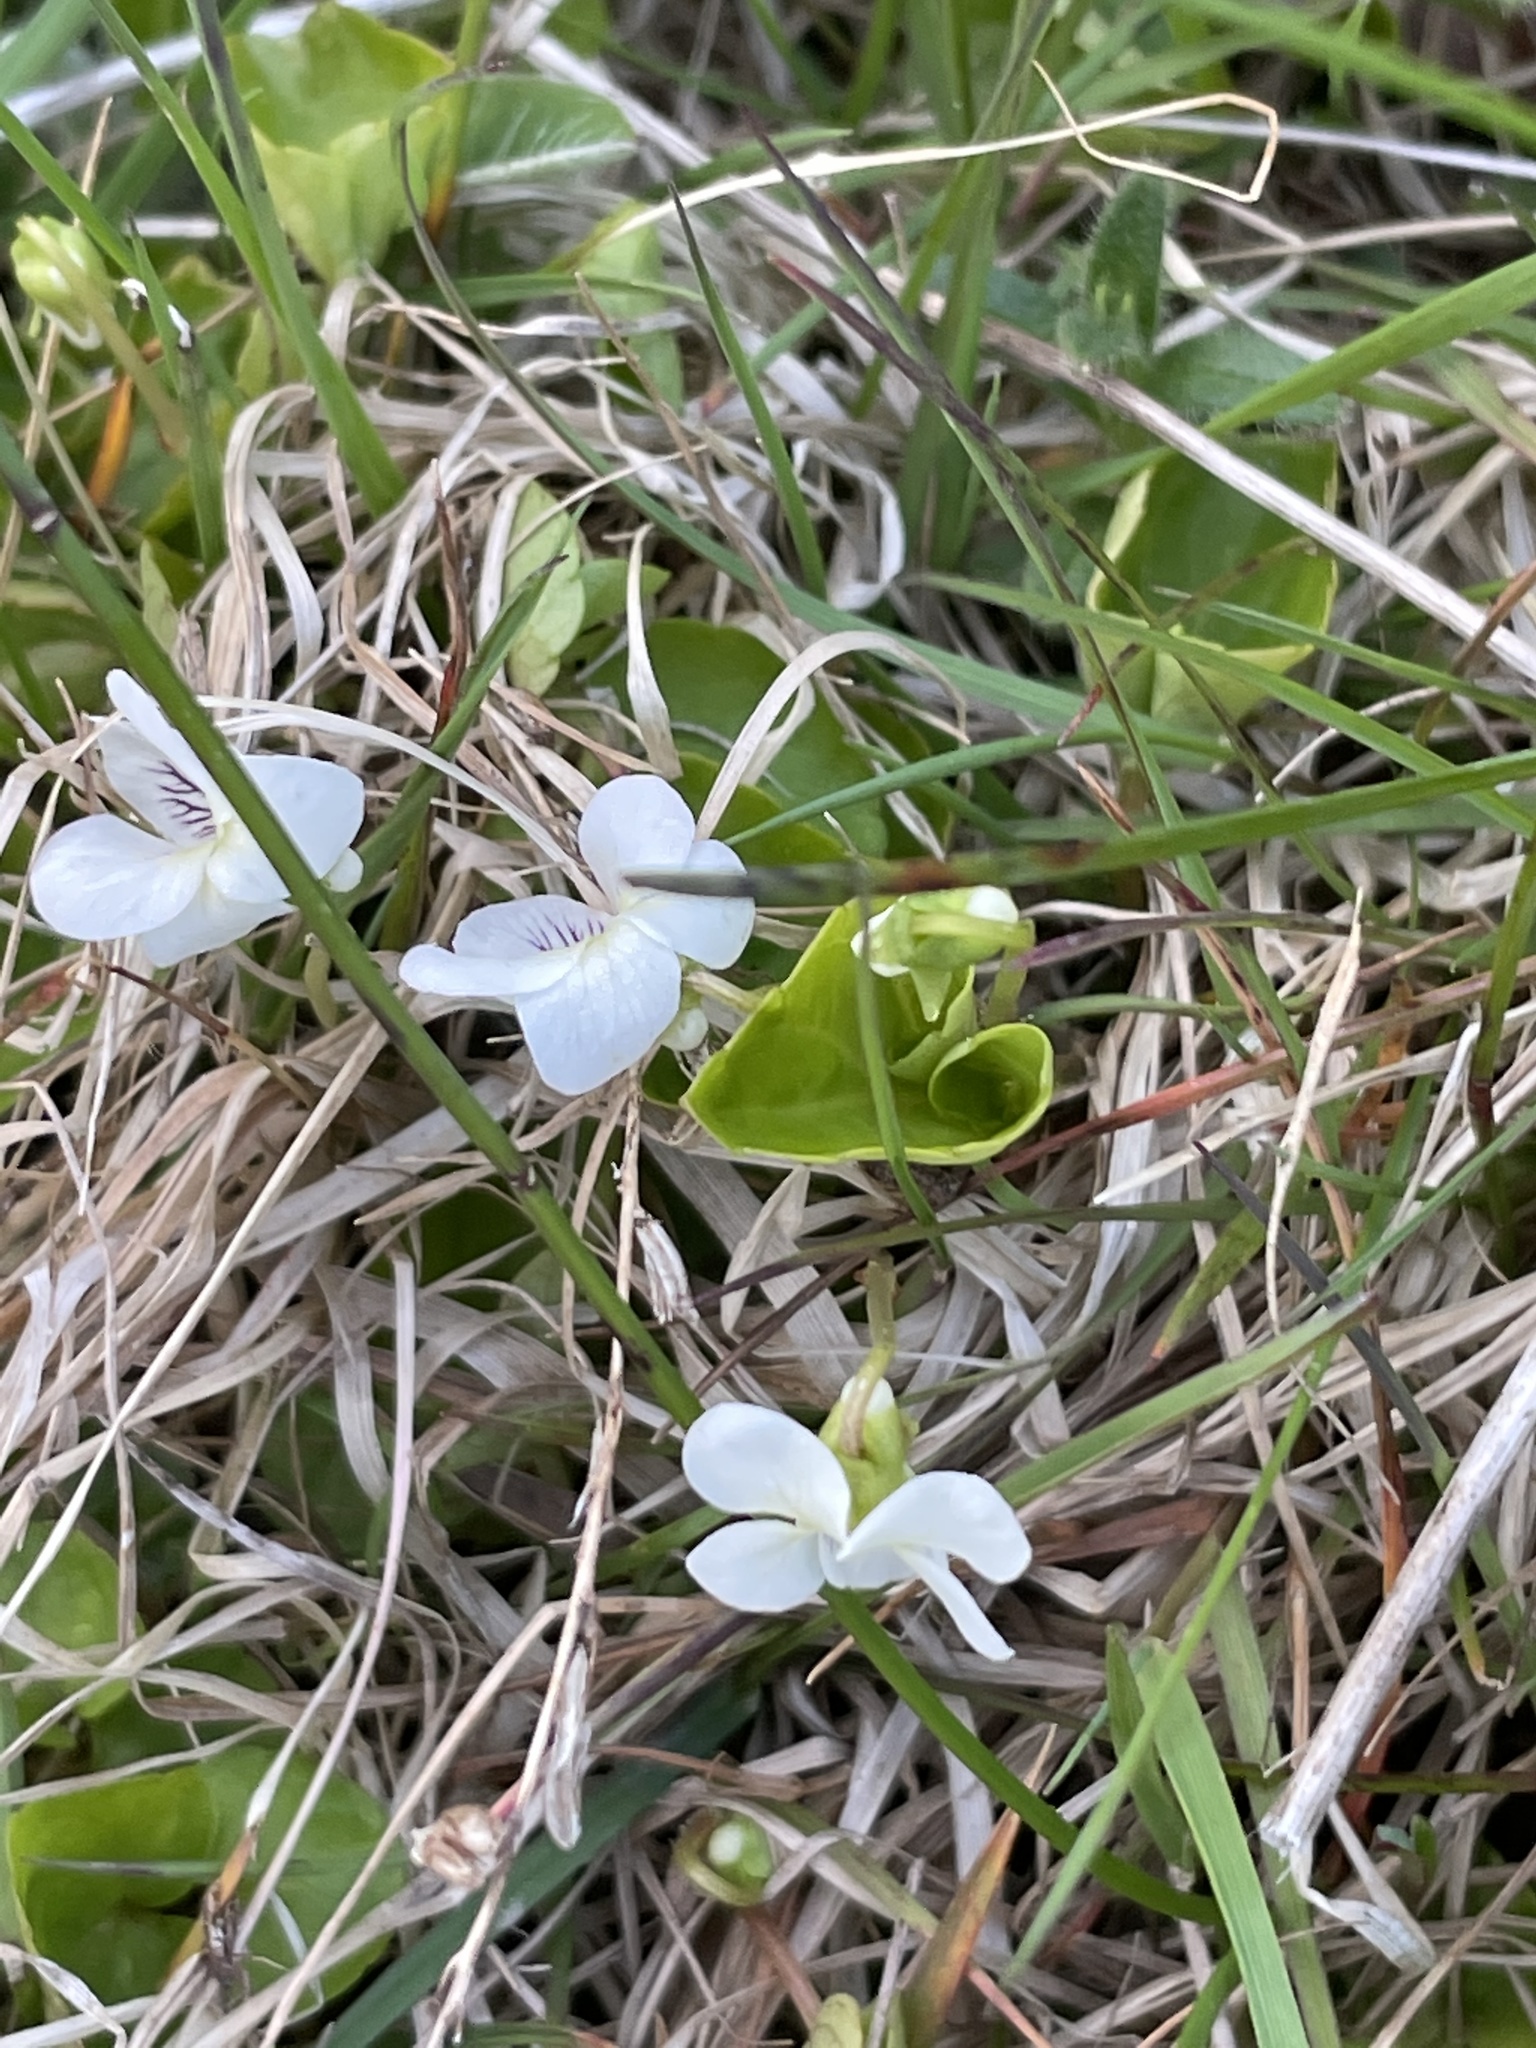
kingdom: Plantae
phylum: Tracheophyta
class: Magnoliopsida
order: Malpighiales
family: Violaceae
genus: Viola
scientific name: Viola minuscula
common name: Northern white violet
